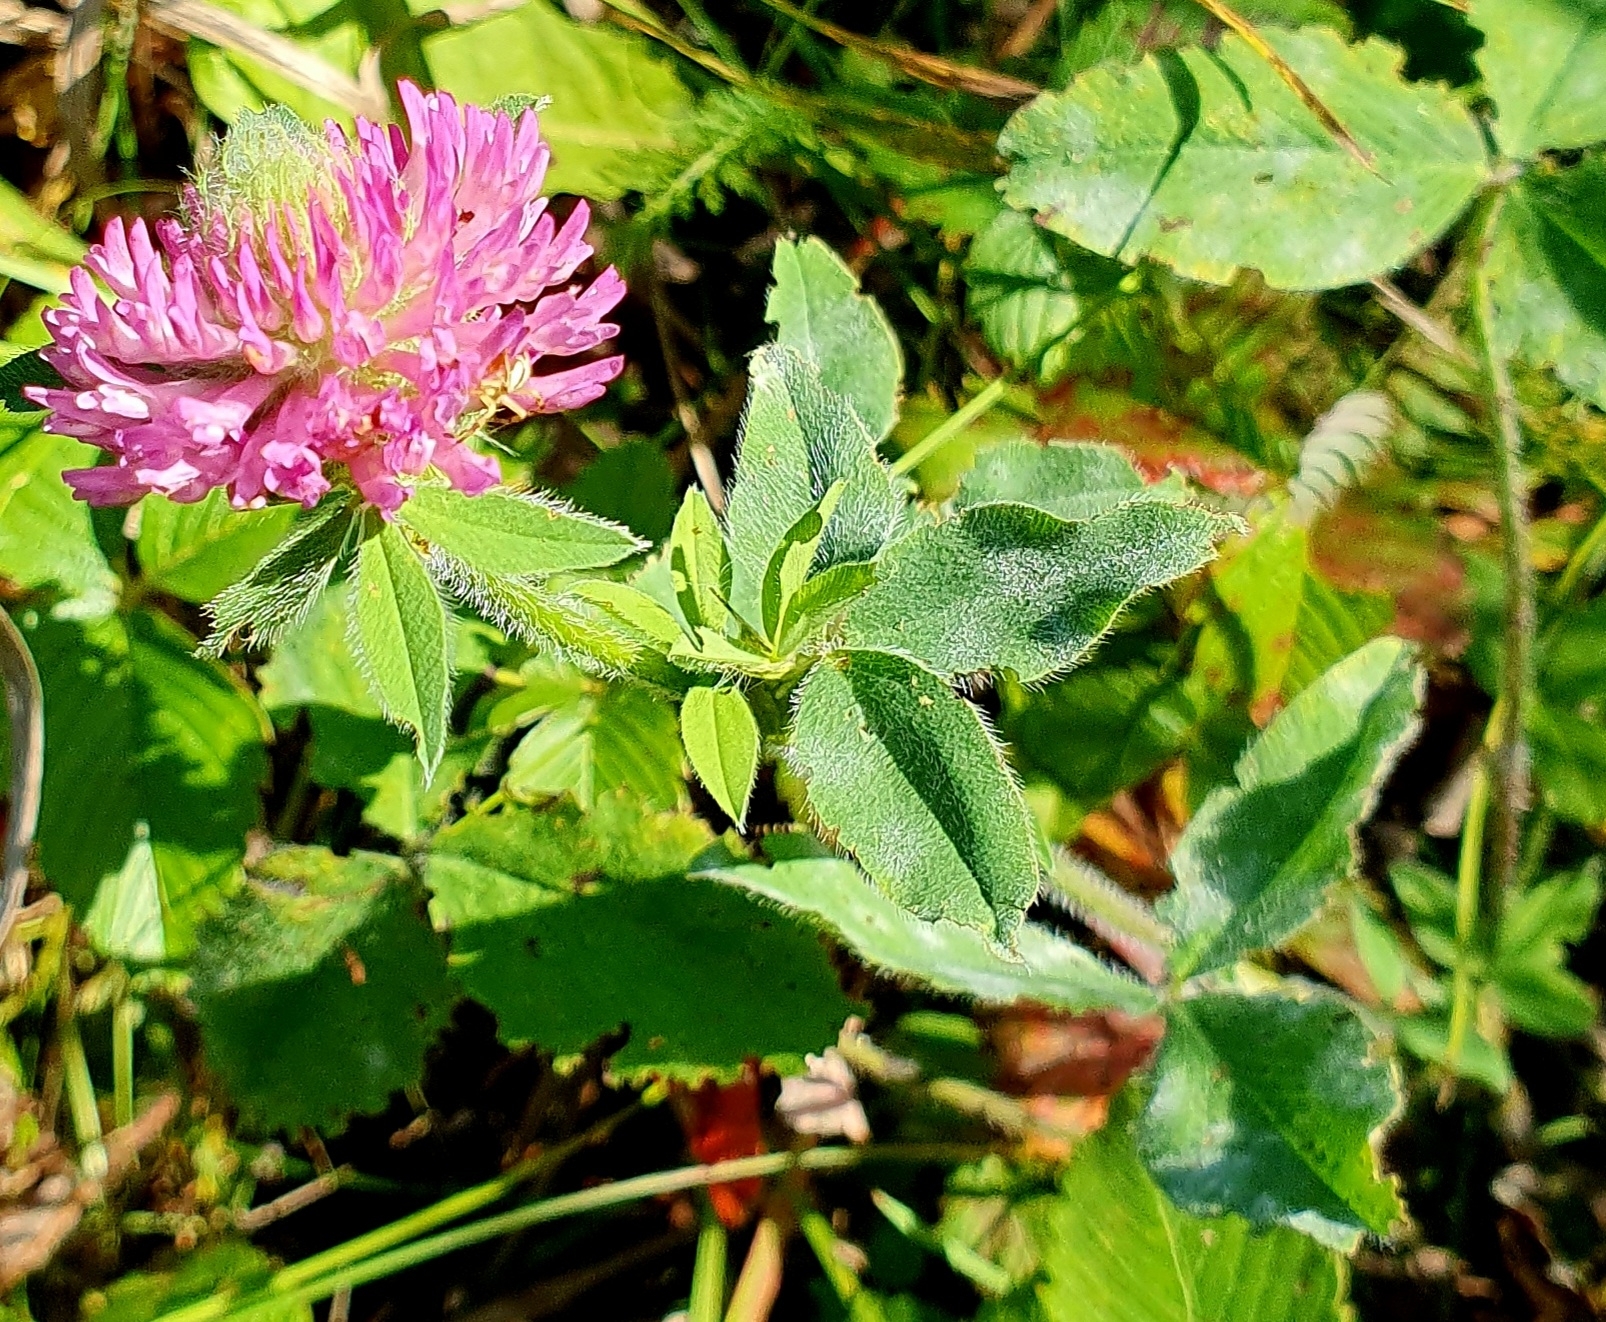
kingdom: Plantae
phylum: Tracheophyta
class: Magnoliopsida
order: Fabales
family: Fabaceae
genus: Trifolium
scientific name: Trifolium pratense
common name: Red clover
